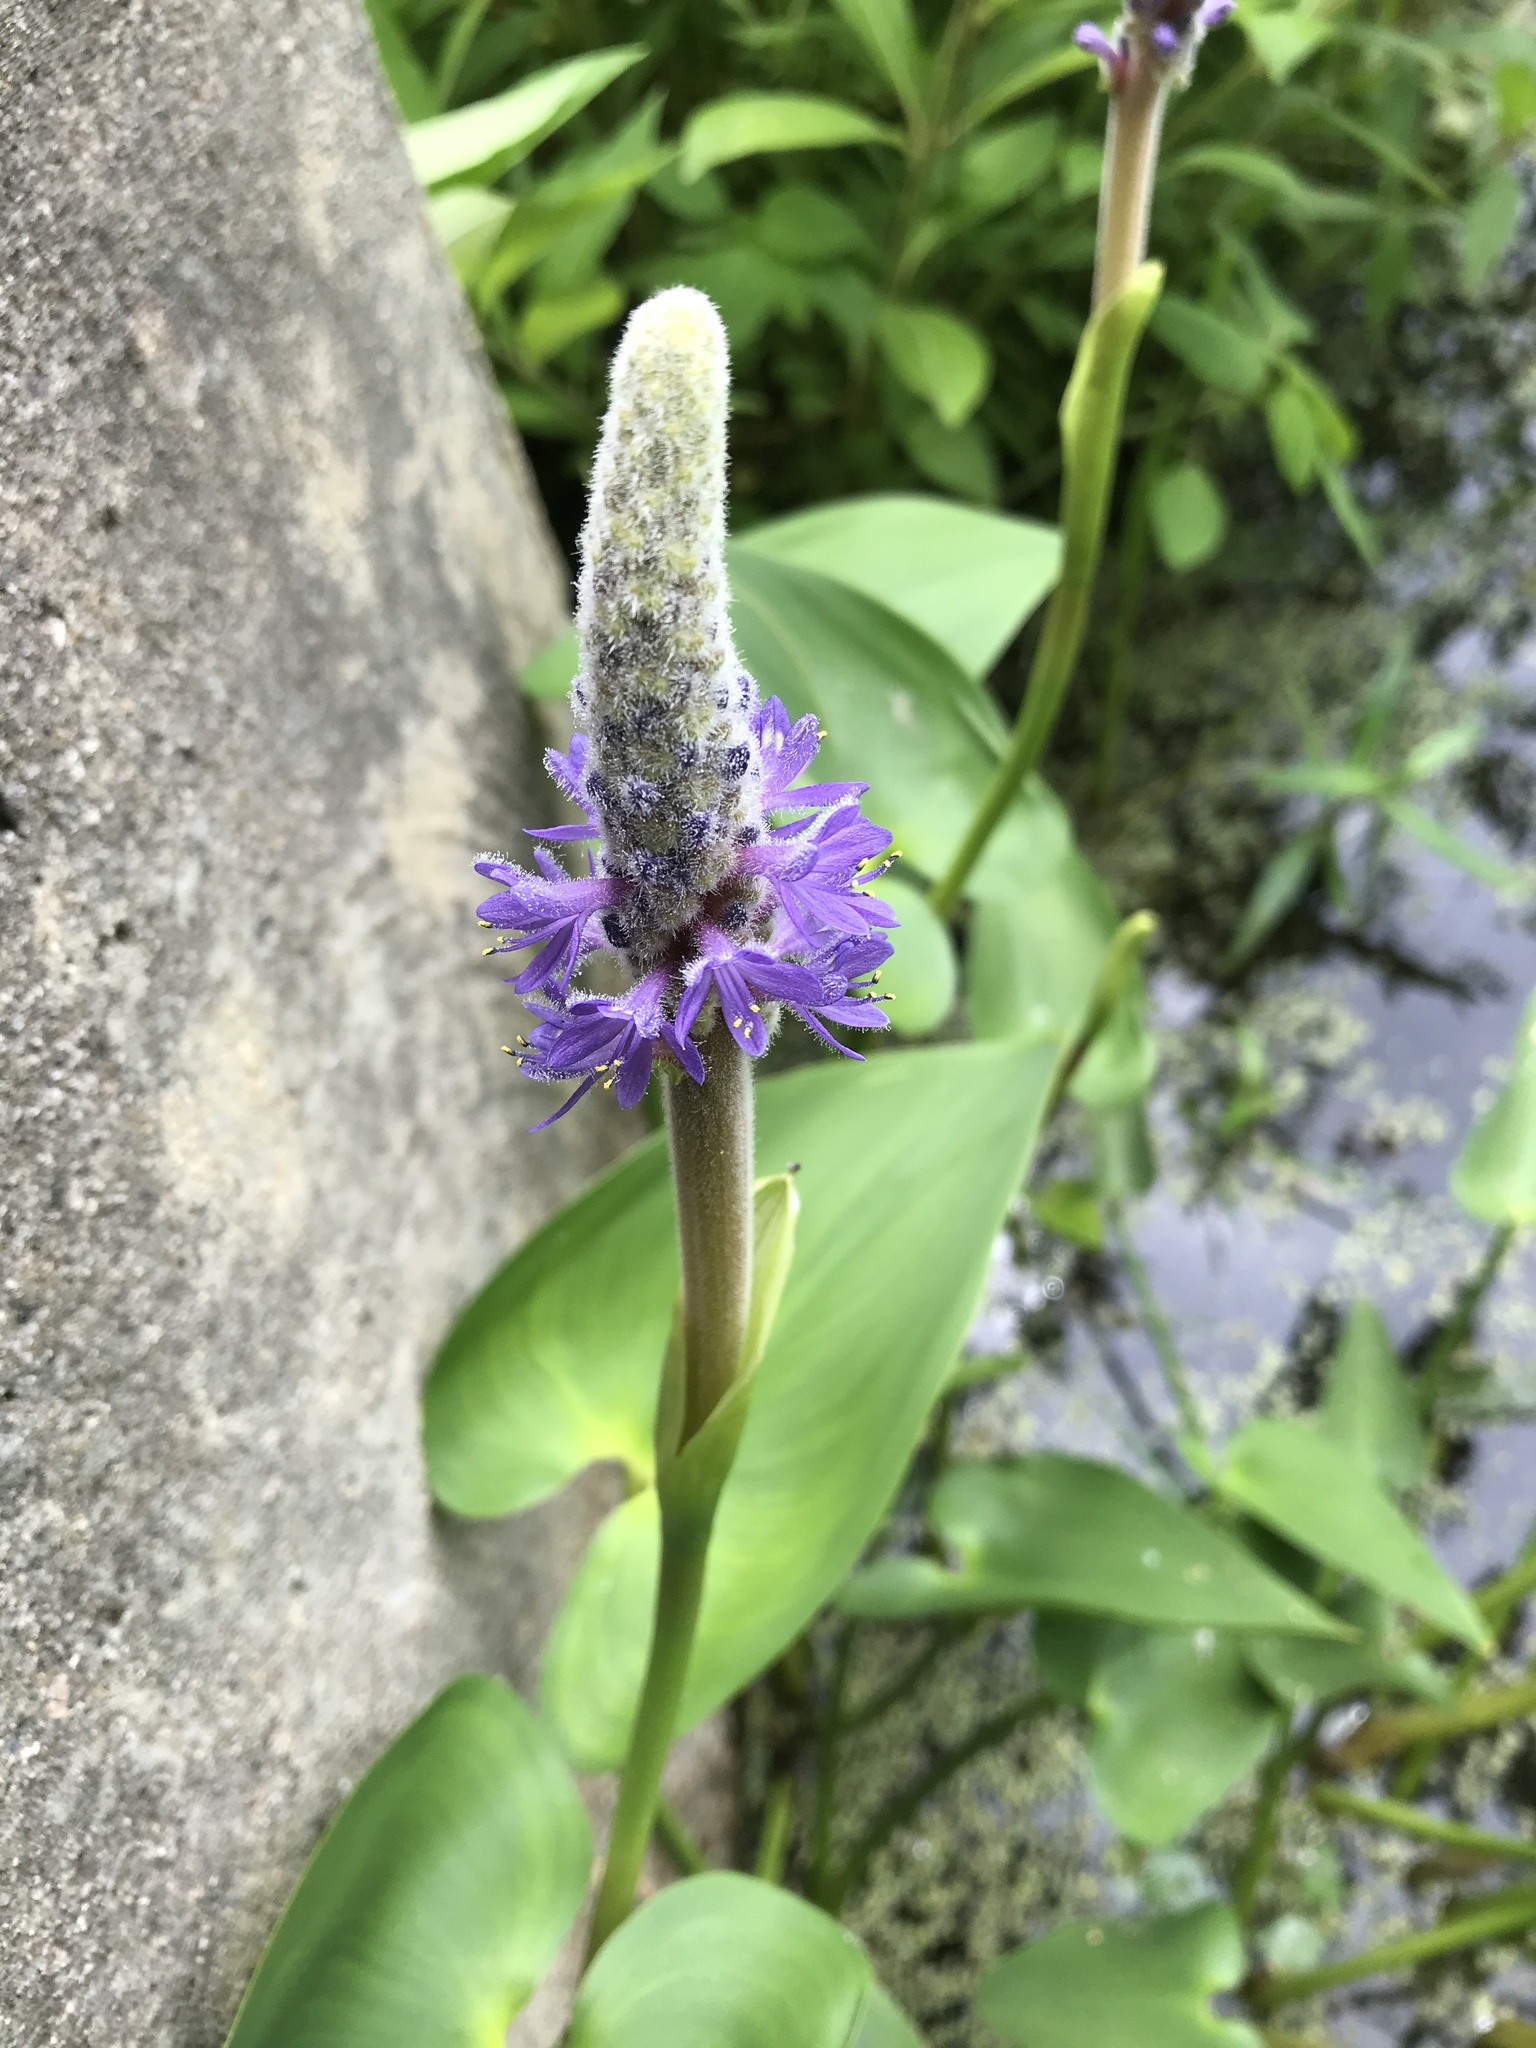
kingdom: Plantae
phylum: Tracheophyta
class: Liliopsida
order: Commelinales
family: Pontederiaceae
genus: Pontederia
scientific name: Pontederia cordata
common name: Pickerelweed
